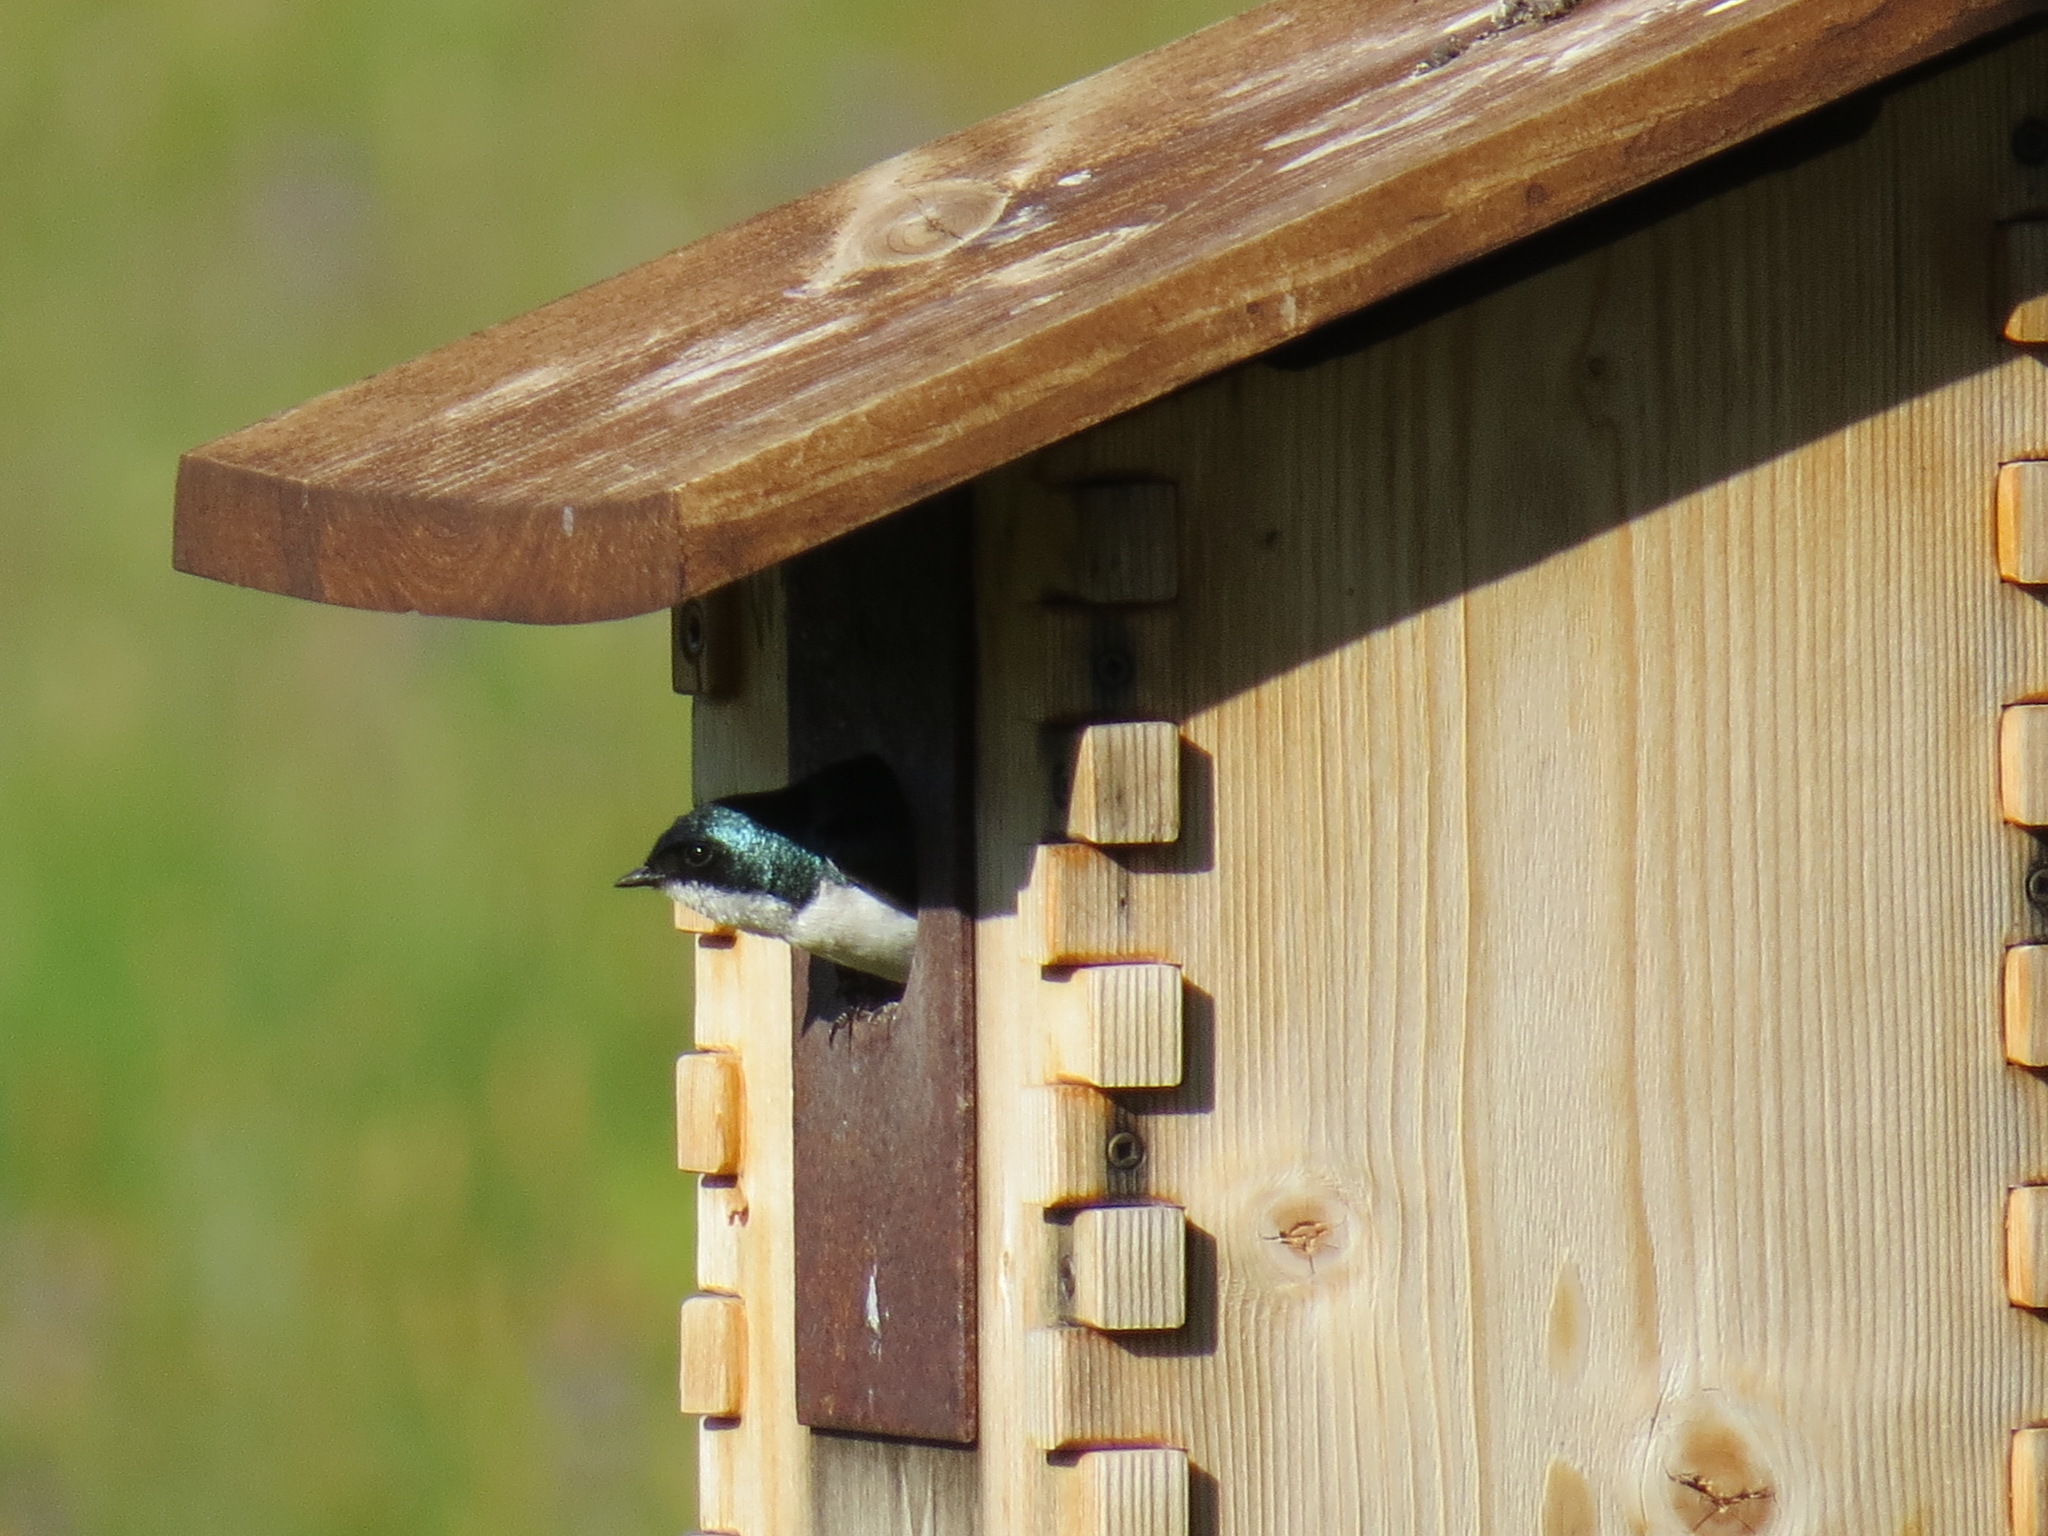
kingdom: Animalia
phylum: Chordata
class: Aves
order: Passeriformes
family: Hirundinidae
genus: Tachycineta
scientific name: Tachycineta bicolor
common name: Tree swallow
